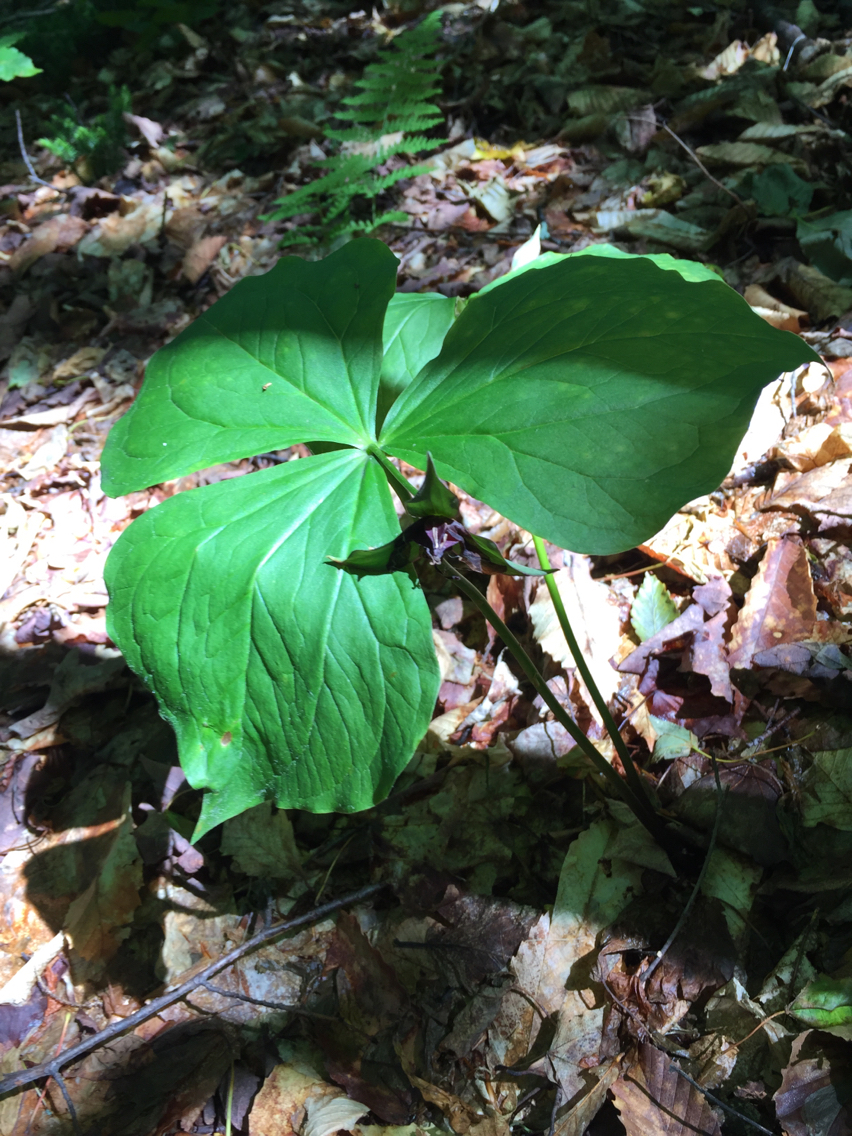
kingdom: Plantae
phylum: Tracheophyta
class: Liliopsida
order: Liliales
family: Melanthiaceae
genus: Trillium
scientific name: Trillium erectum
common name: Purple trillium
